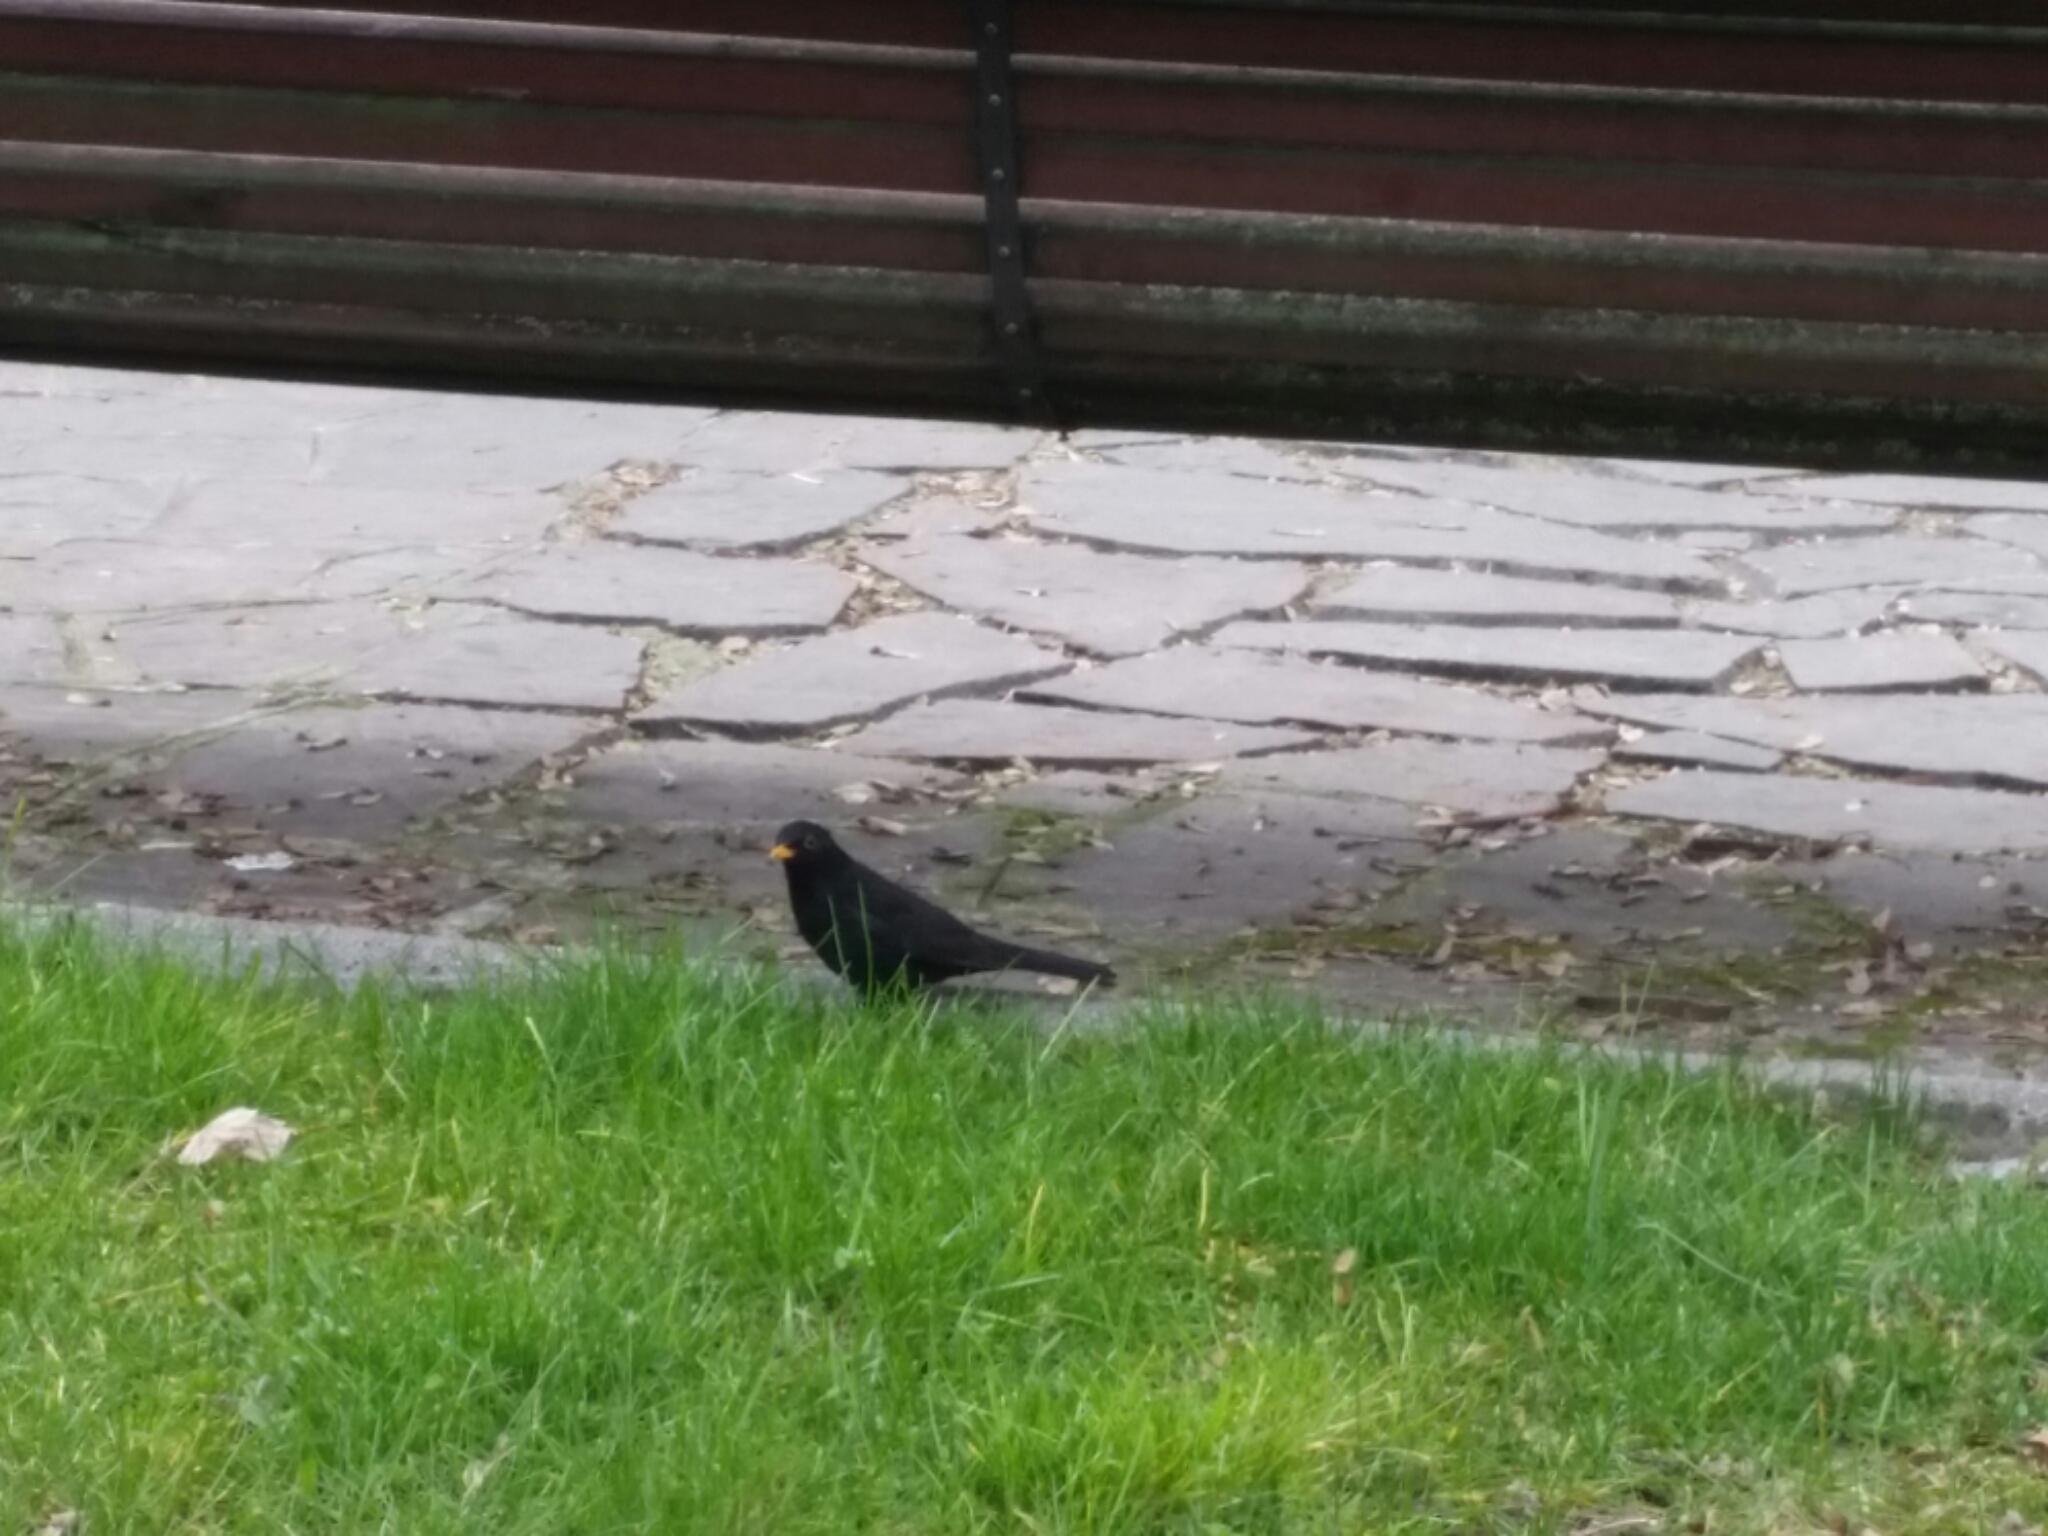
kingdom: Animalia
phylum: Chordata
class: Aves
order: Passeriformes
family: Turdidae
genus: Turdus
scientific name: Turdus merula
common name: Common blackbird
